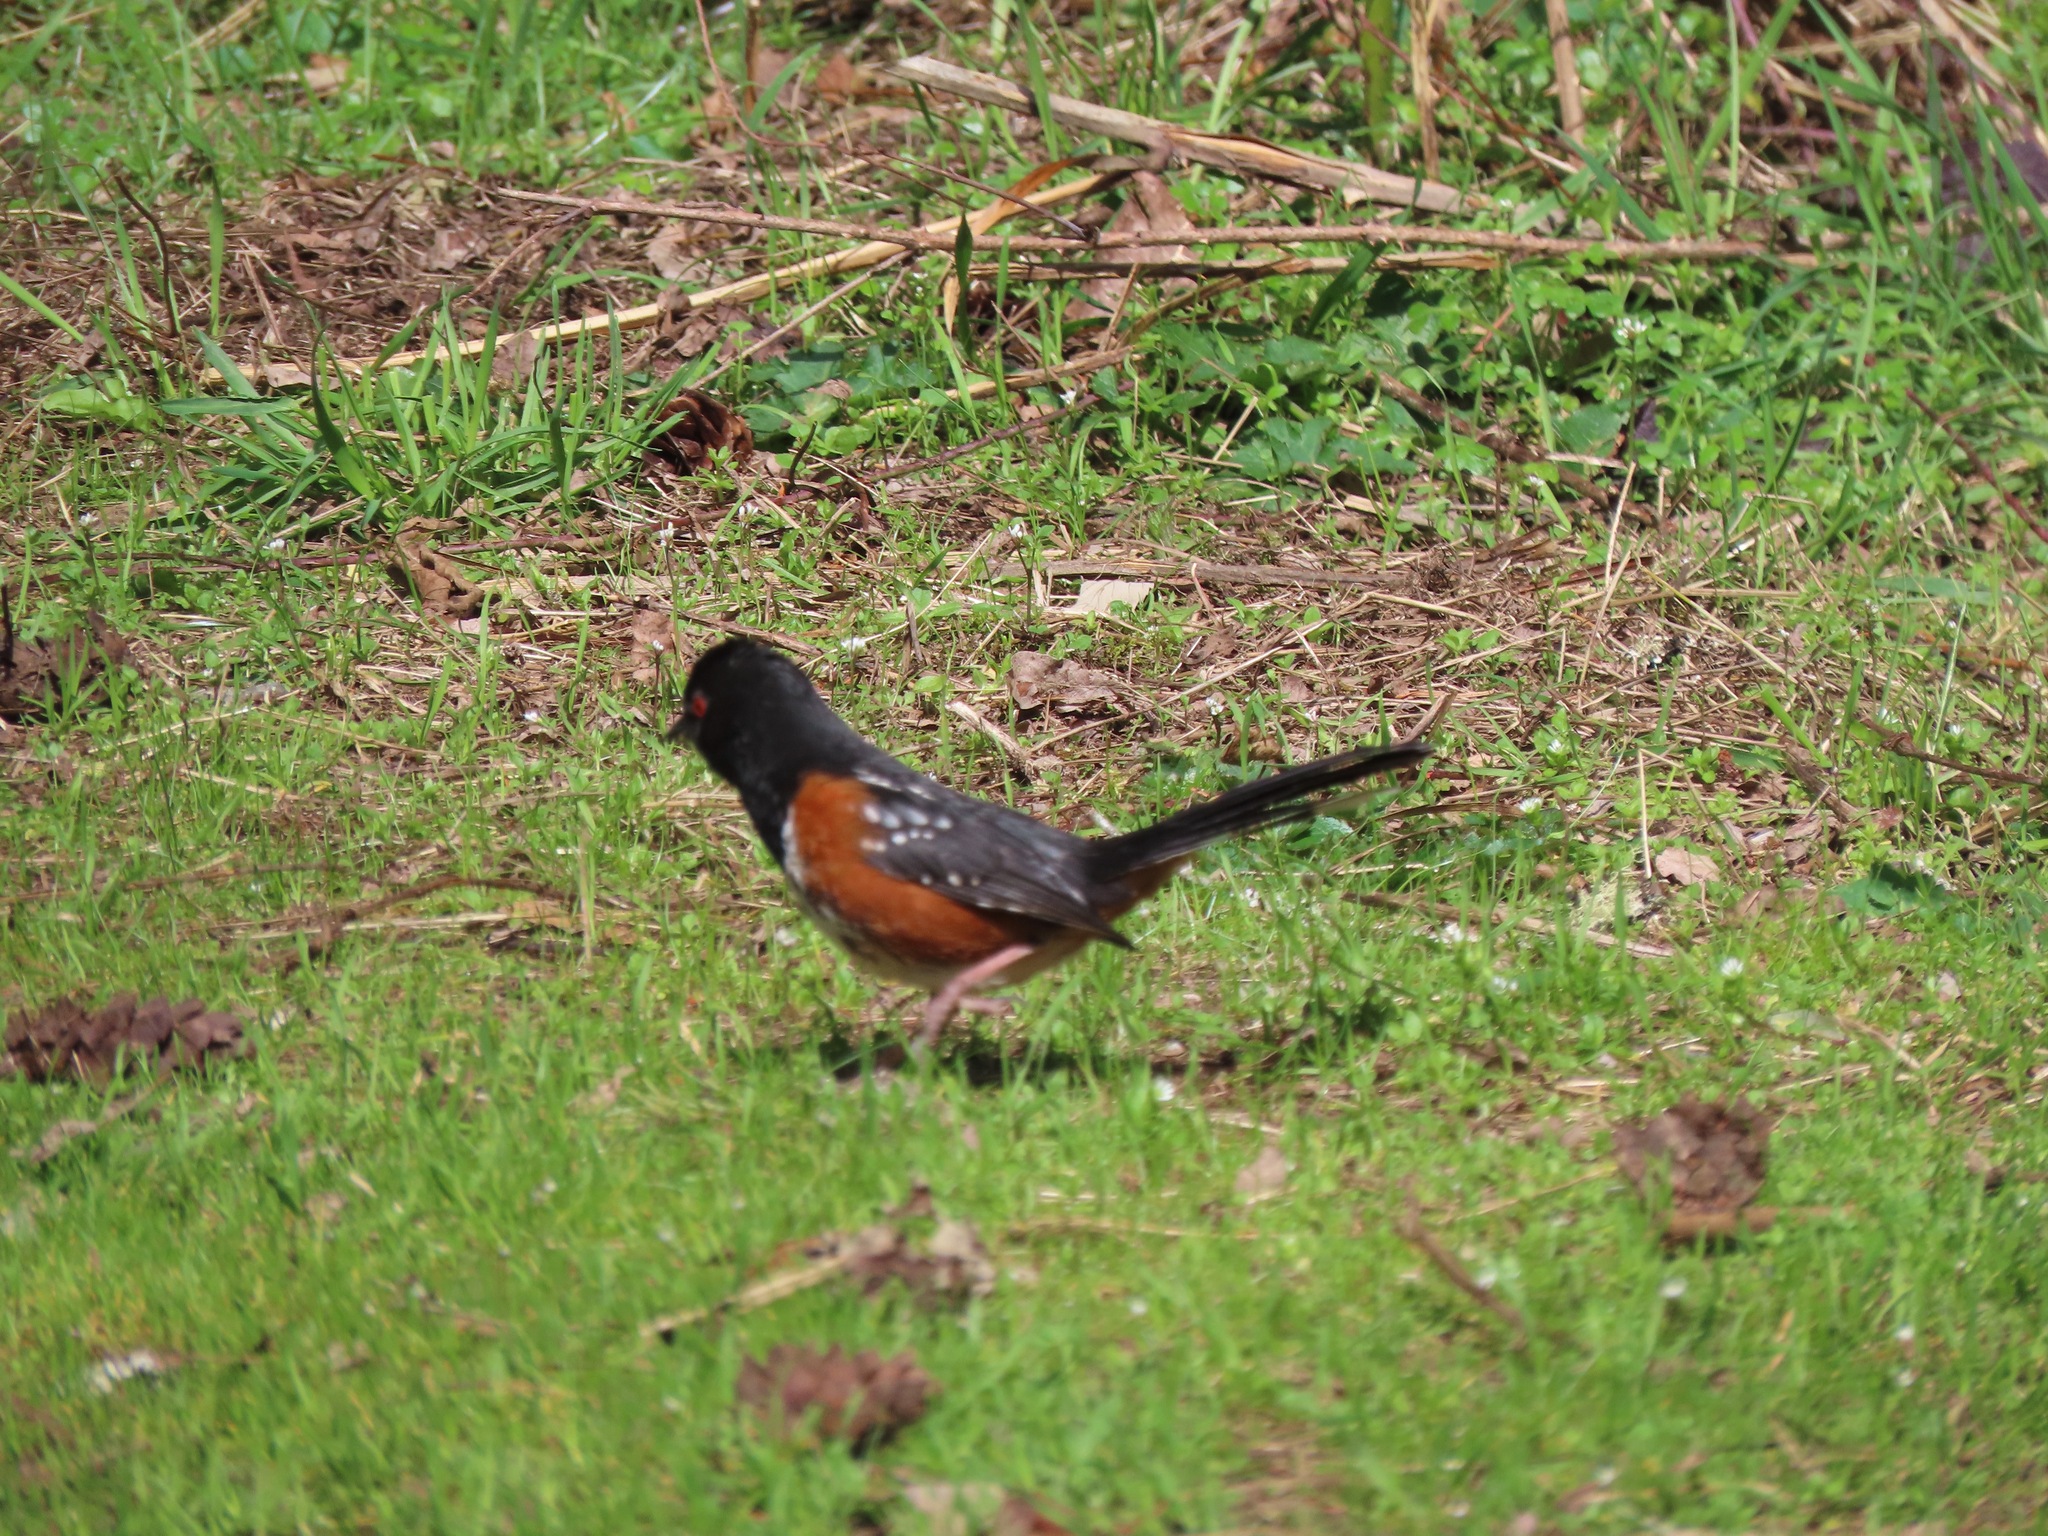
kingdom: Animalia
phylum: Chordata
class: Aves
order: Passeriformes
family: Passerellidae
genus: Pipilo
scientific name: Pipilo maculatus
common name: Spotted towhee
